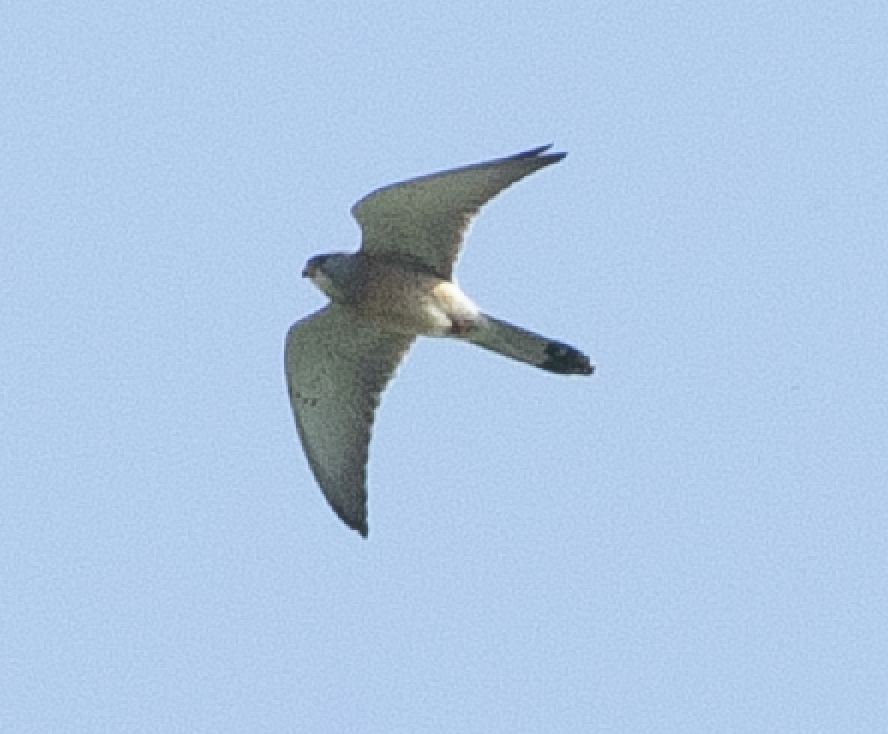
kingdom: Animalia
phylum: Chordata
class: Aves
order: Falconiformes
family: Falconidae
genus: Falco
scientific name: Falco naumanni
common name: Lesser kestrel
